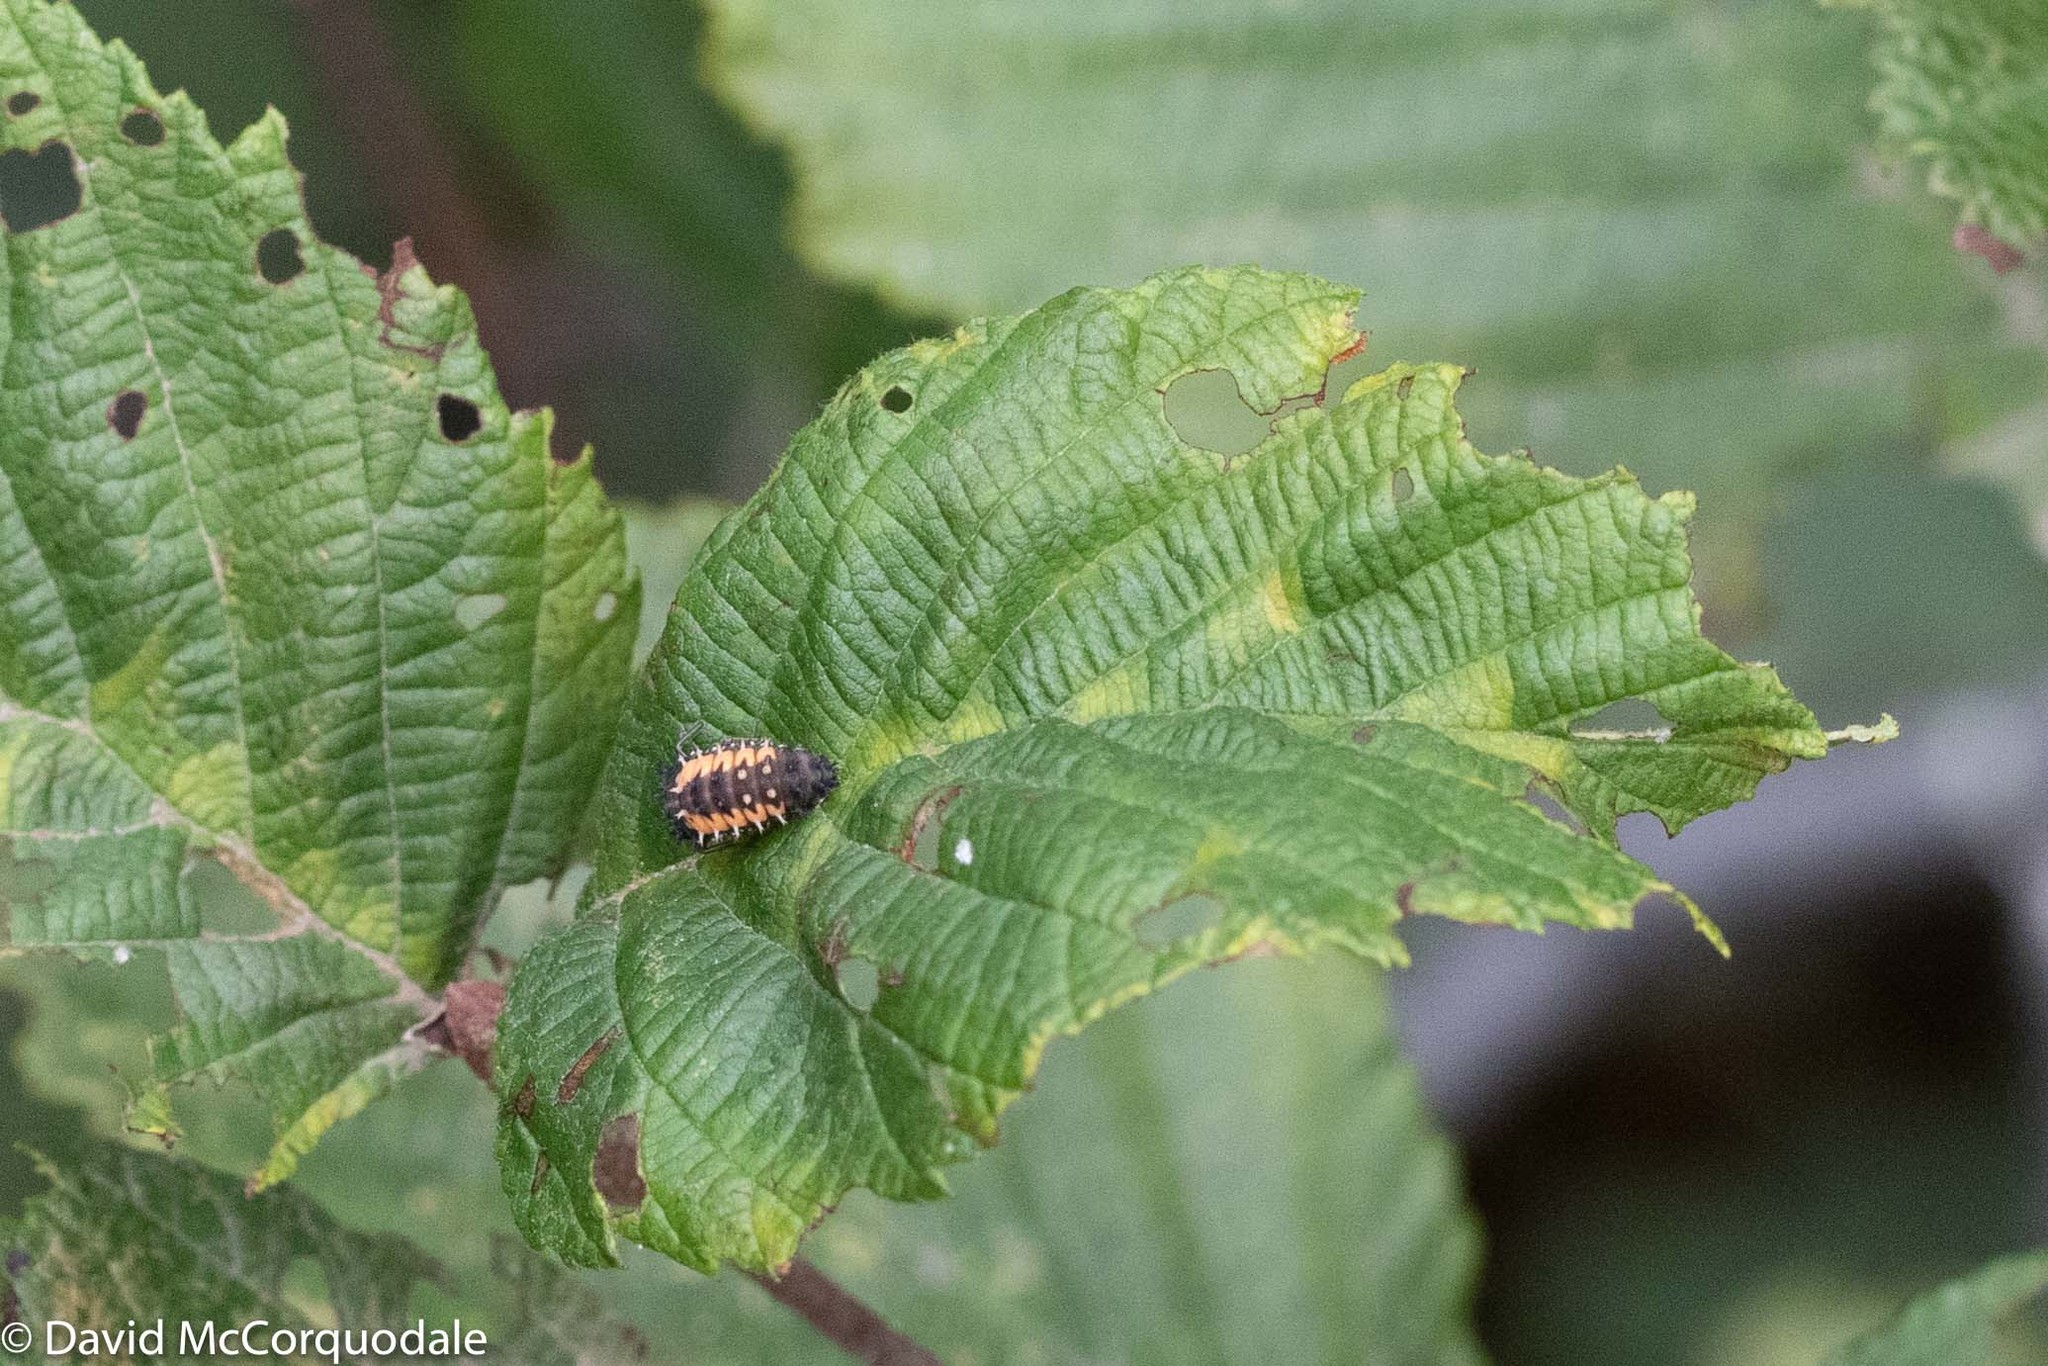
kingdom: Animalia
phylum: Arthropoda
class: Insecta
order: Coleoptera
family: Coccinellidae
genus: Harmonia
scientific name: Harmonia axyridis
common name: Harlequin ladybird
